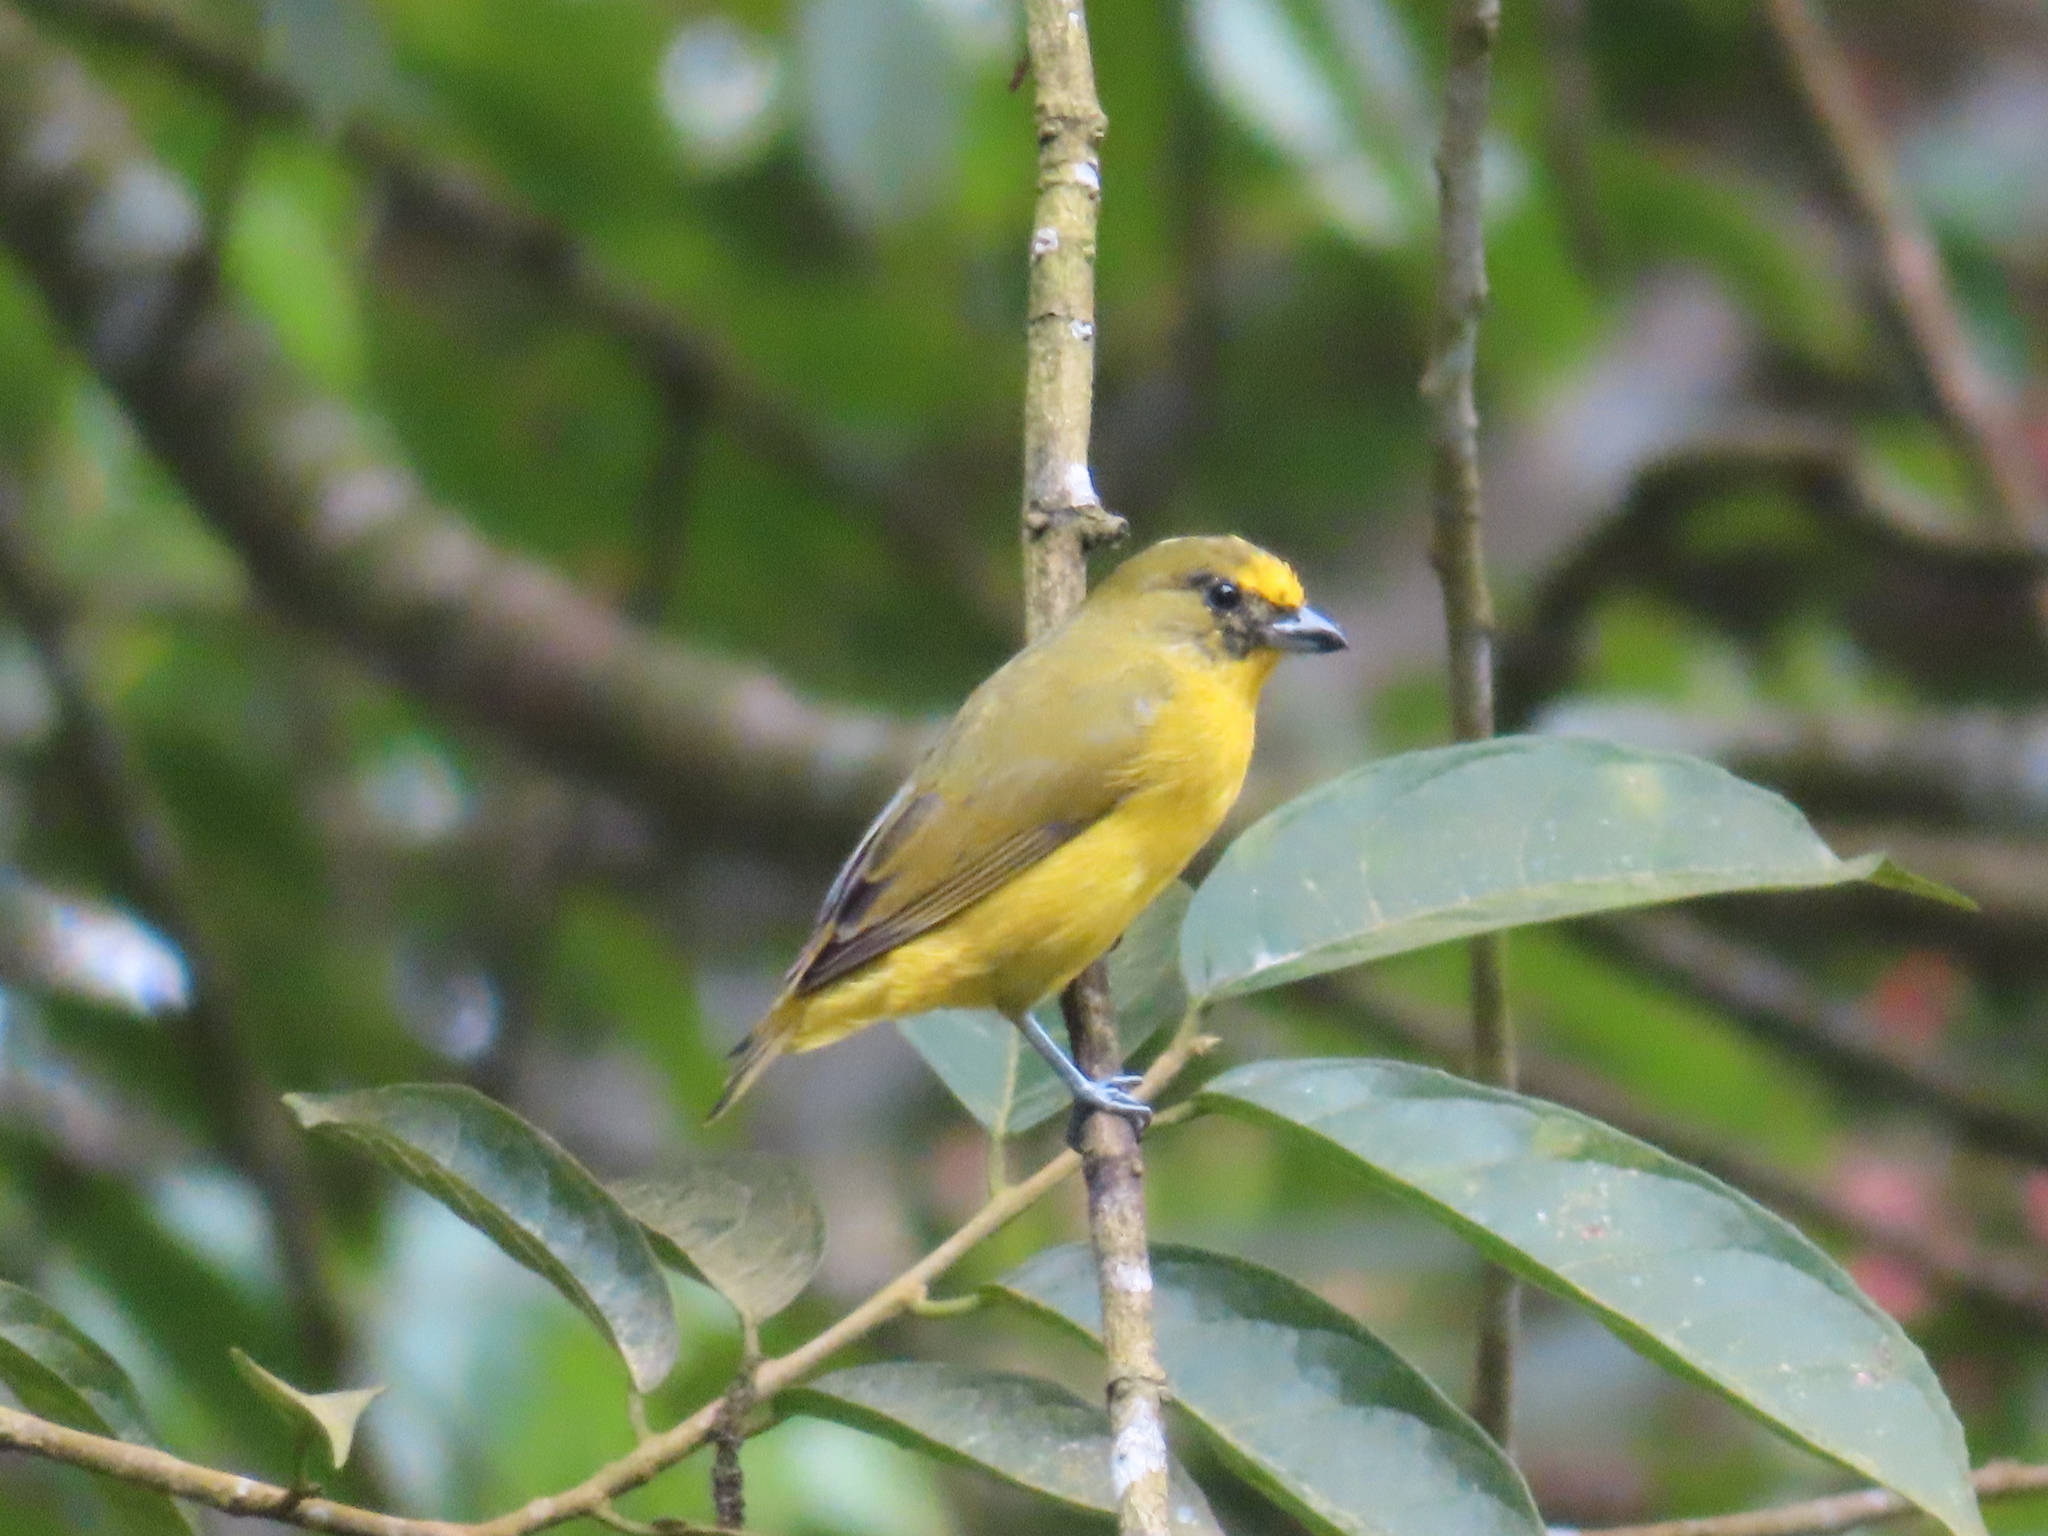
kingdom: Animalia
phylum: Chordata
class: Aves
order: Passeriformes
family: Fringillidae
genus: Euphonia
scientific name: Euphonia laniirostris
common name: Thick-billed euphonia
